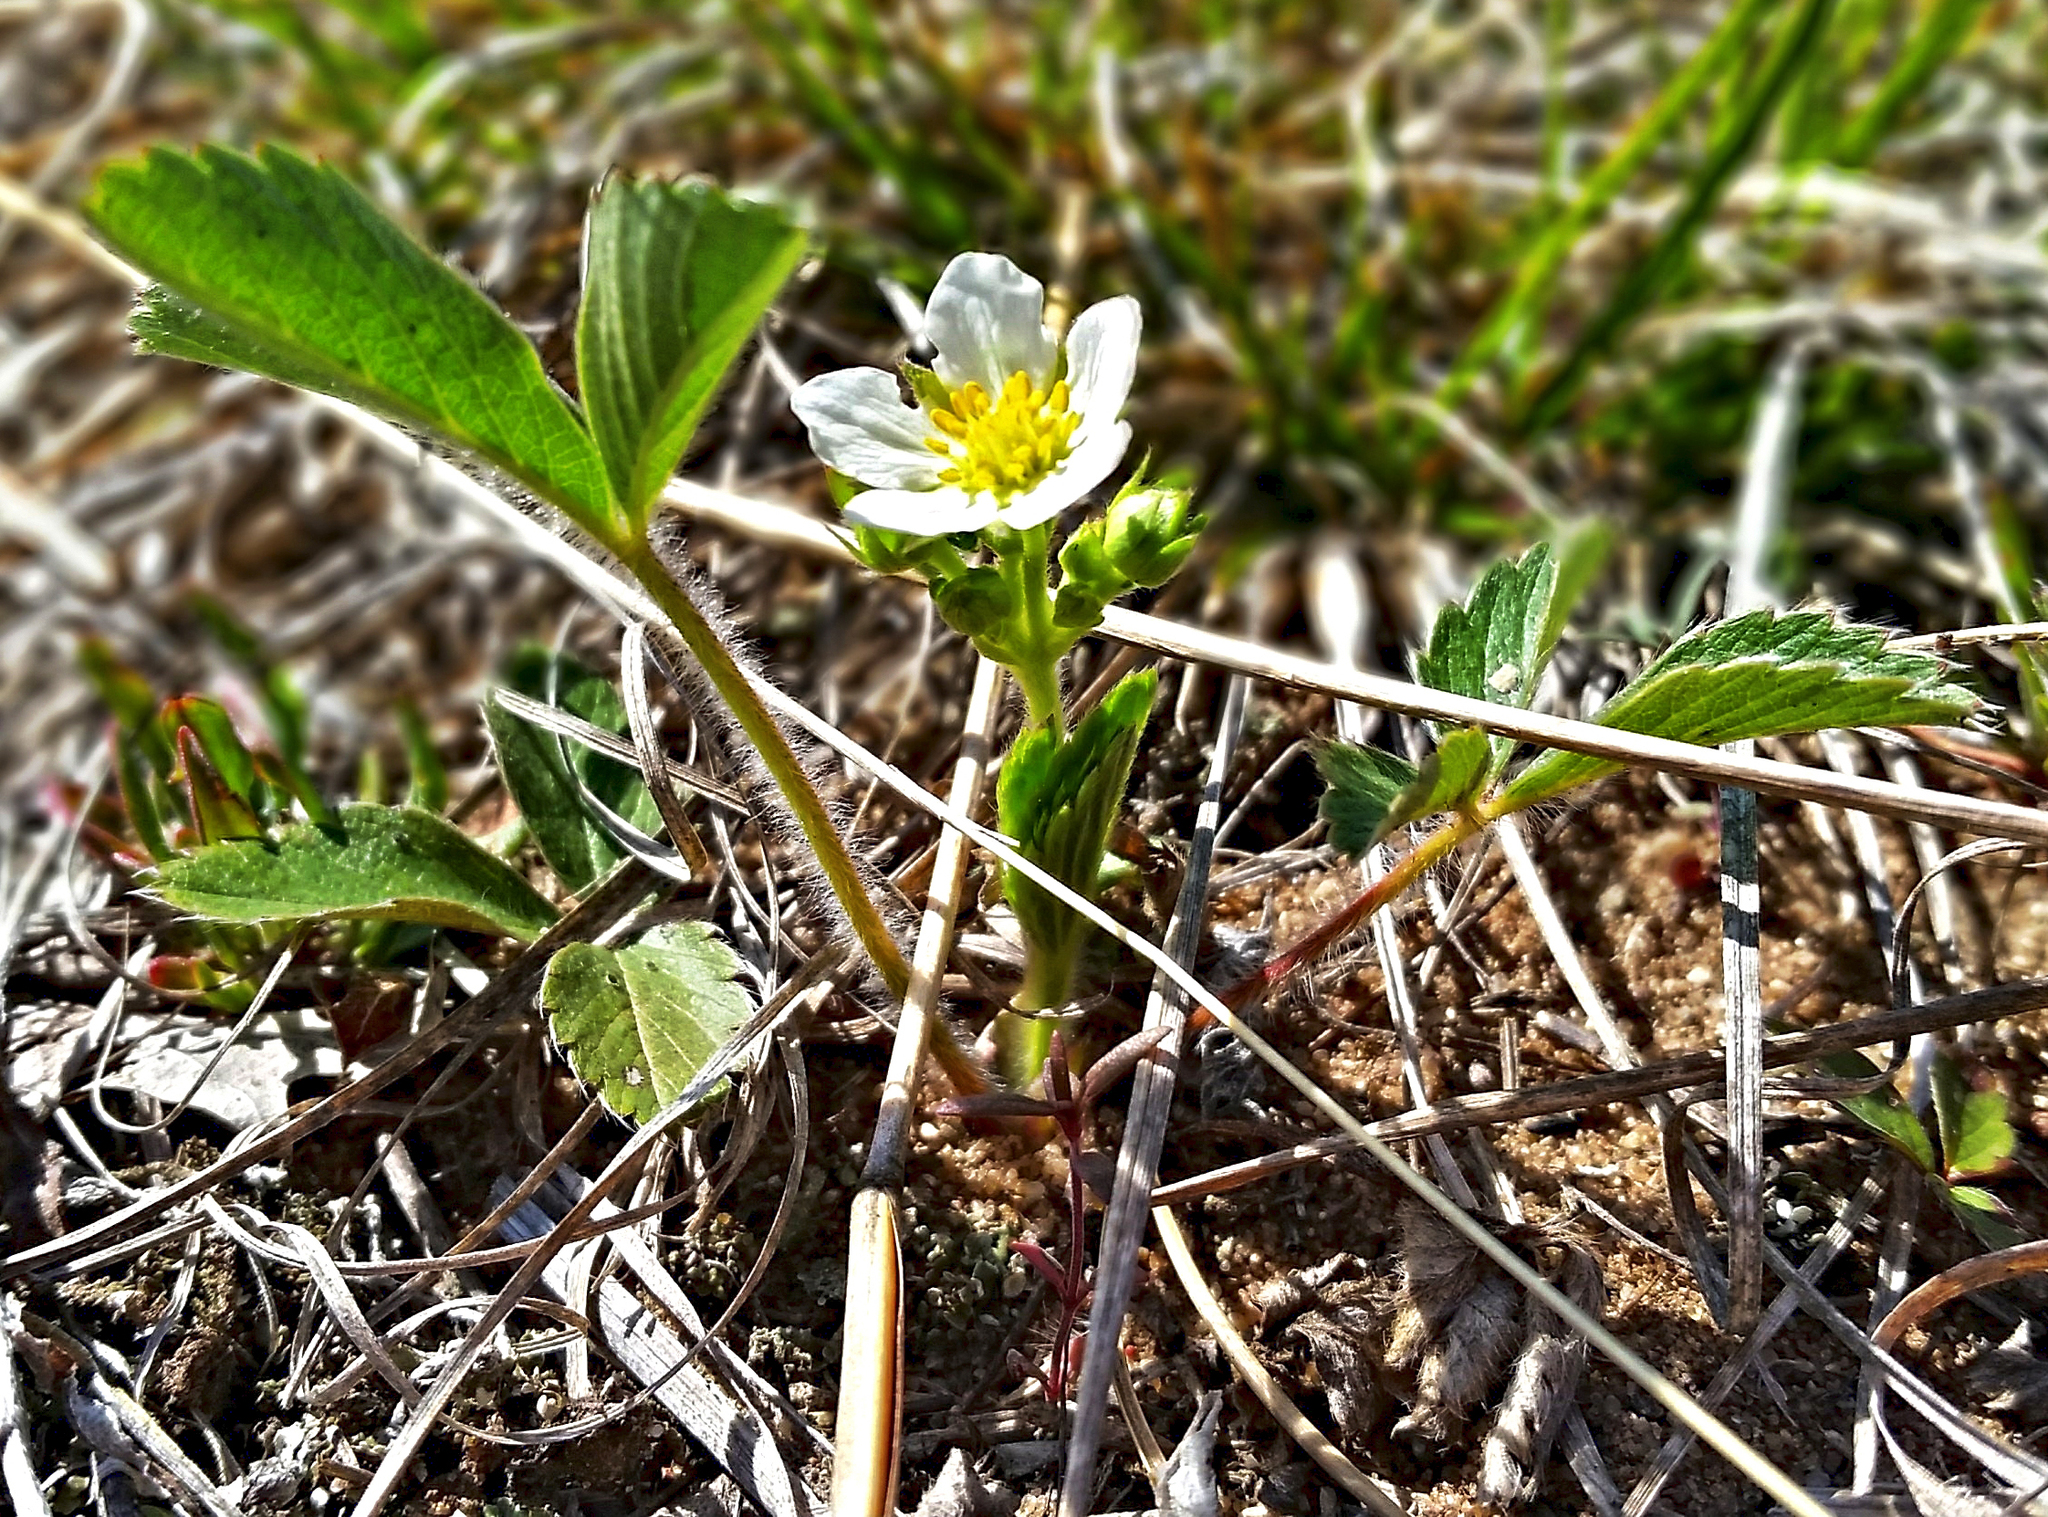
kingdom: Plantae
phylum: Tracheophyta
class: Magnoliopsida
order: Rosales
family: Rosaceae
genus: Fragaria
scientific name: Fragaria virginiana
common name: Thickleaved wild strawberry
